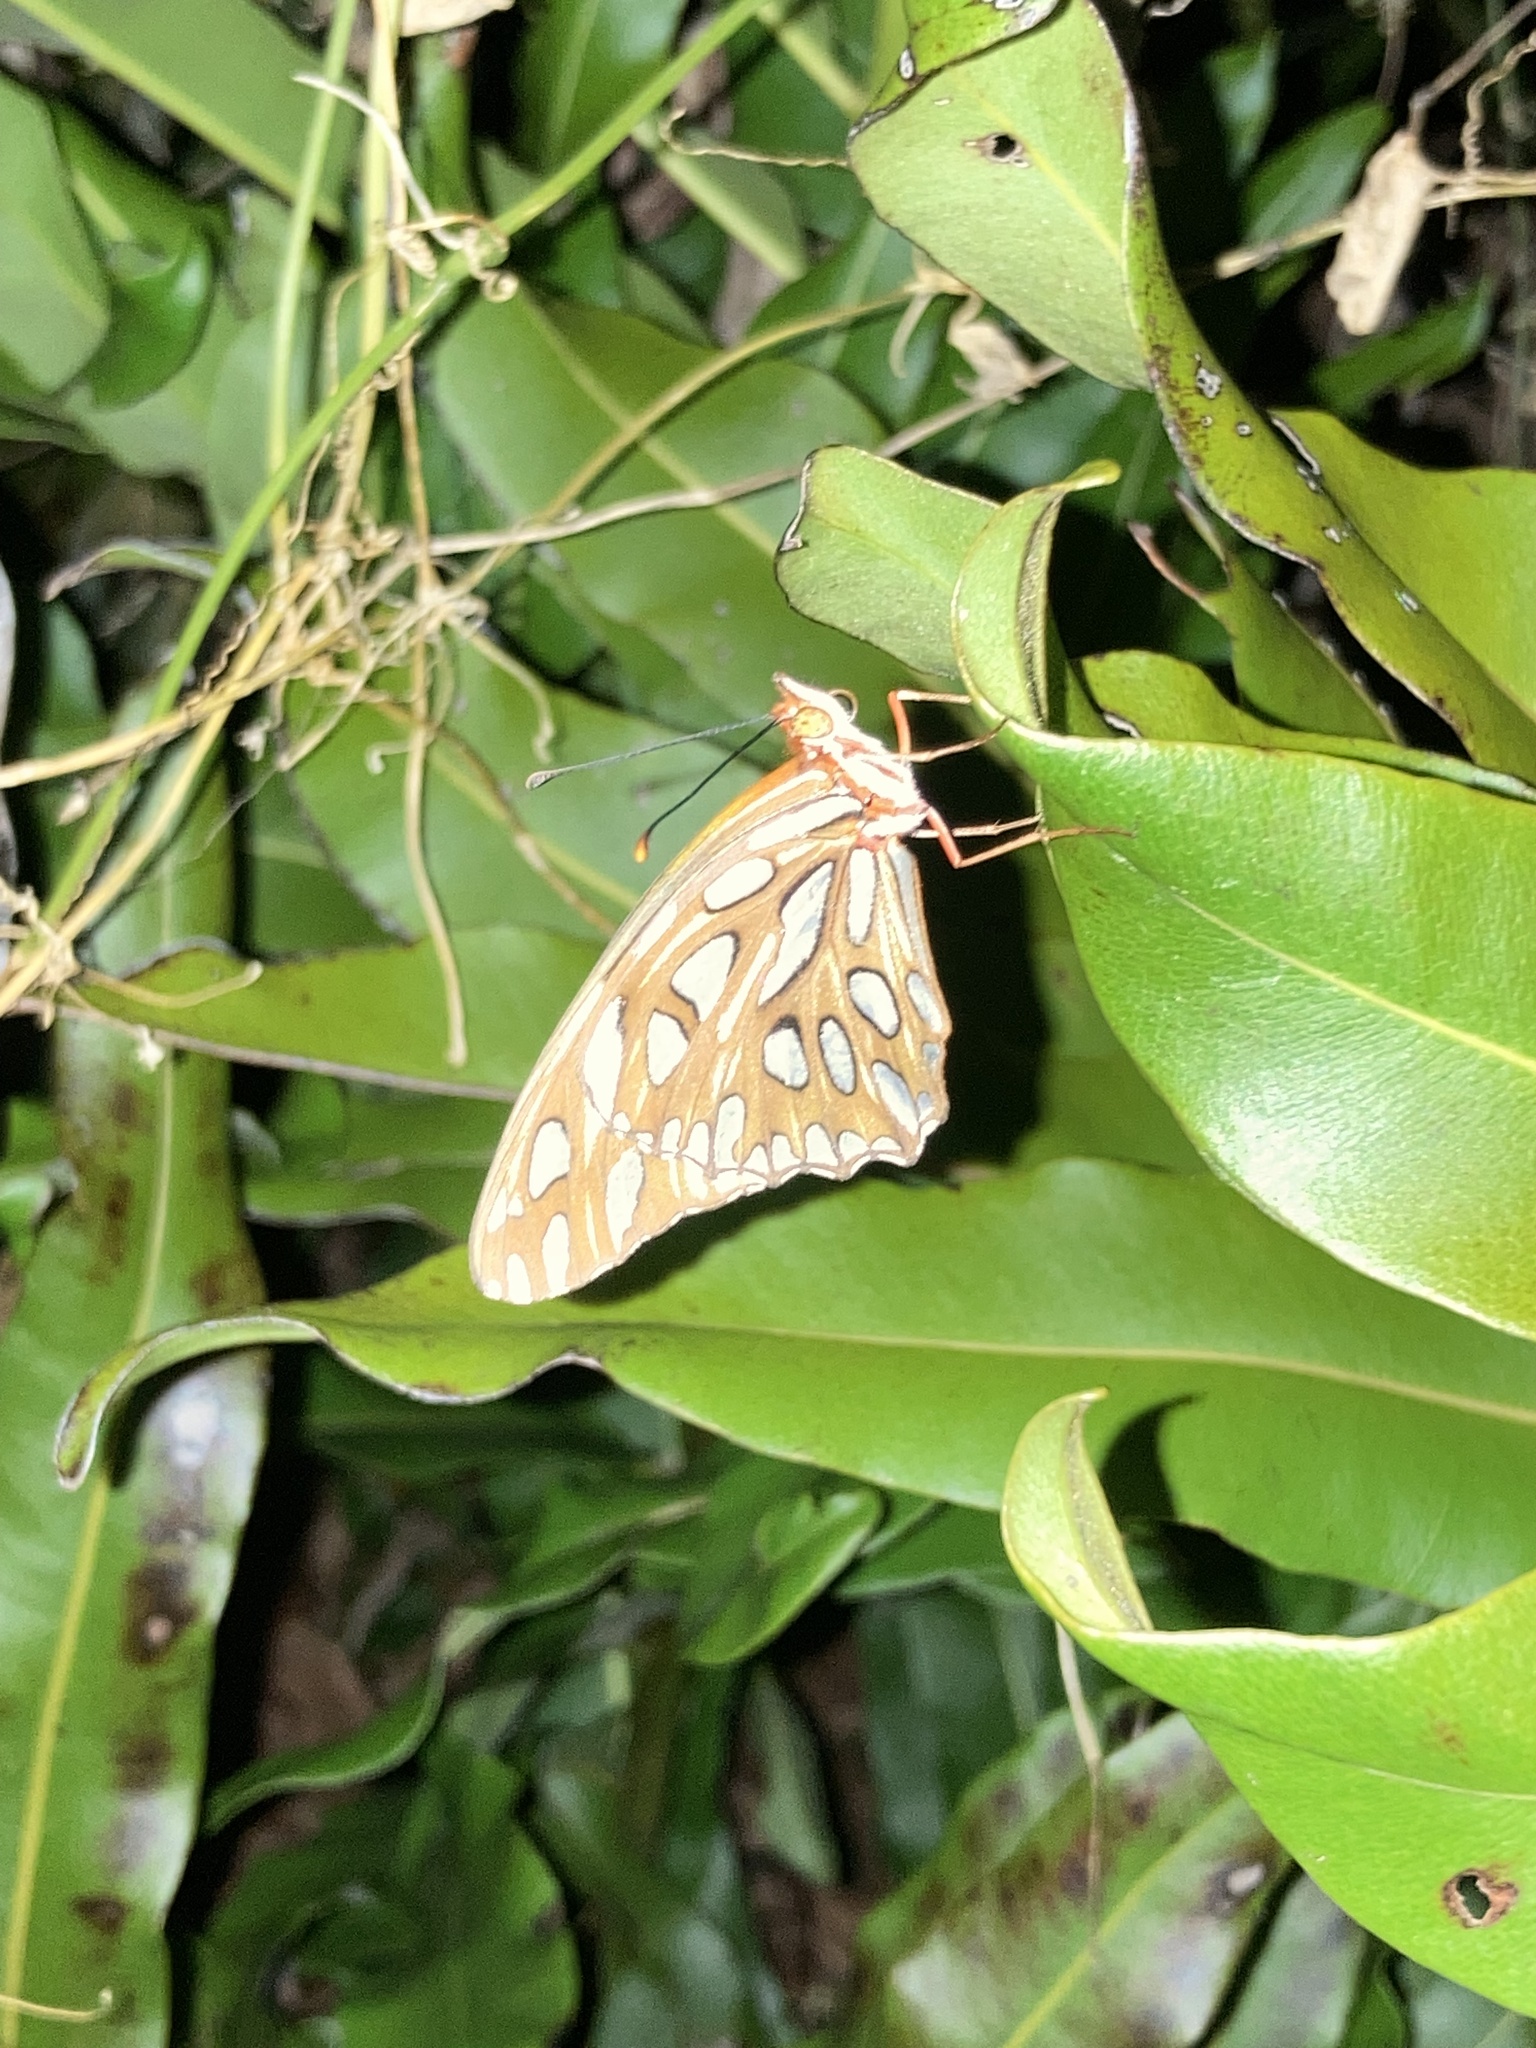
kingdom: Animalia
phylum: Arthropoda
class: Insecta
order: Lepidoptera
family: Nymphalidae
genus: Dione
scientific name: Dione vanillae
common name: Gulf fritillary
